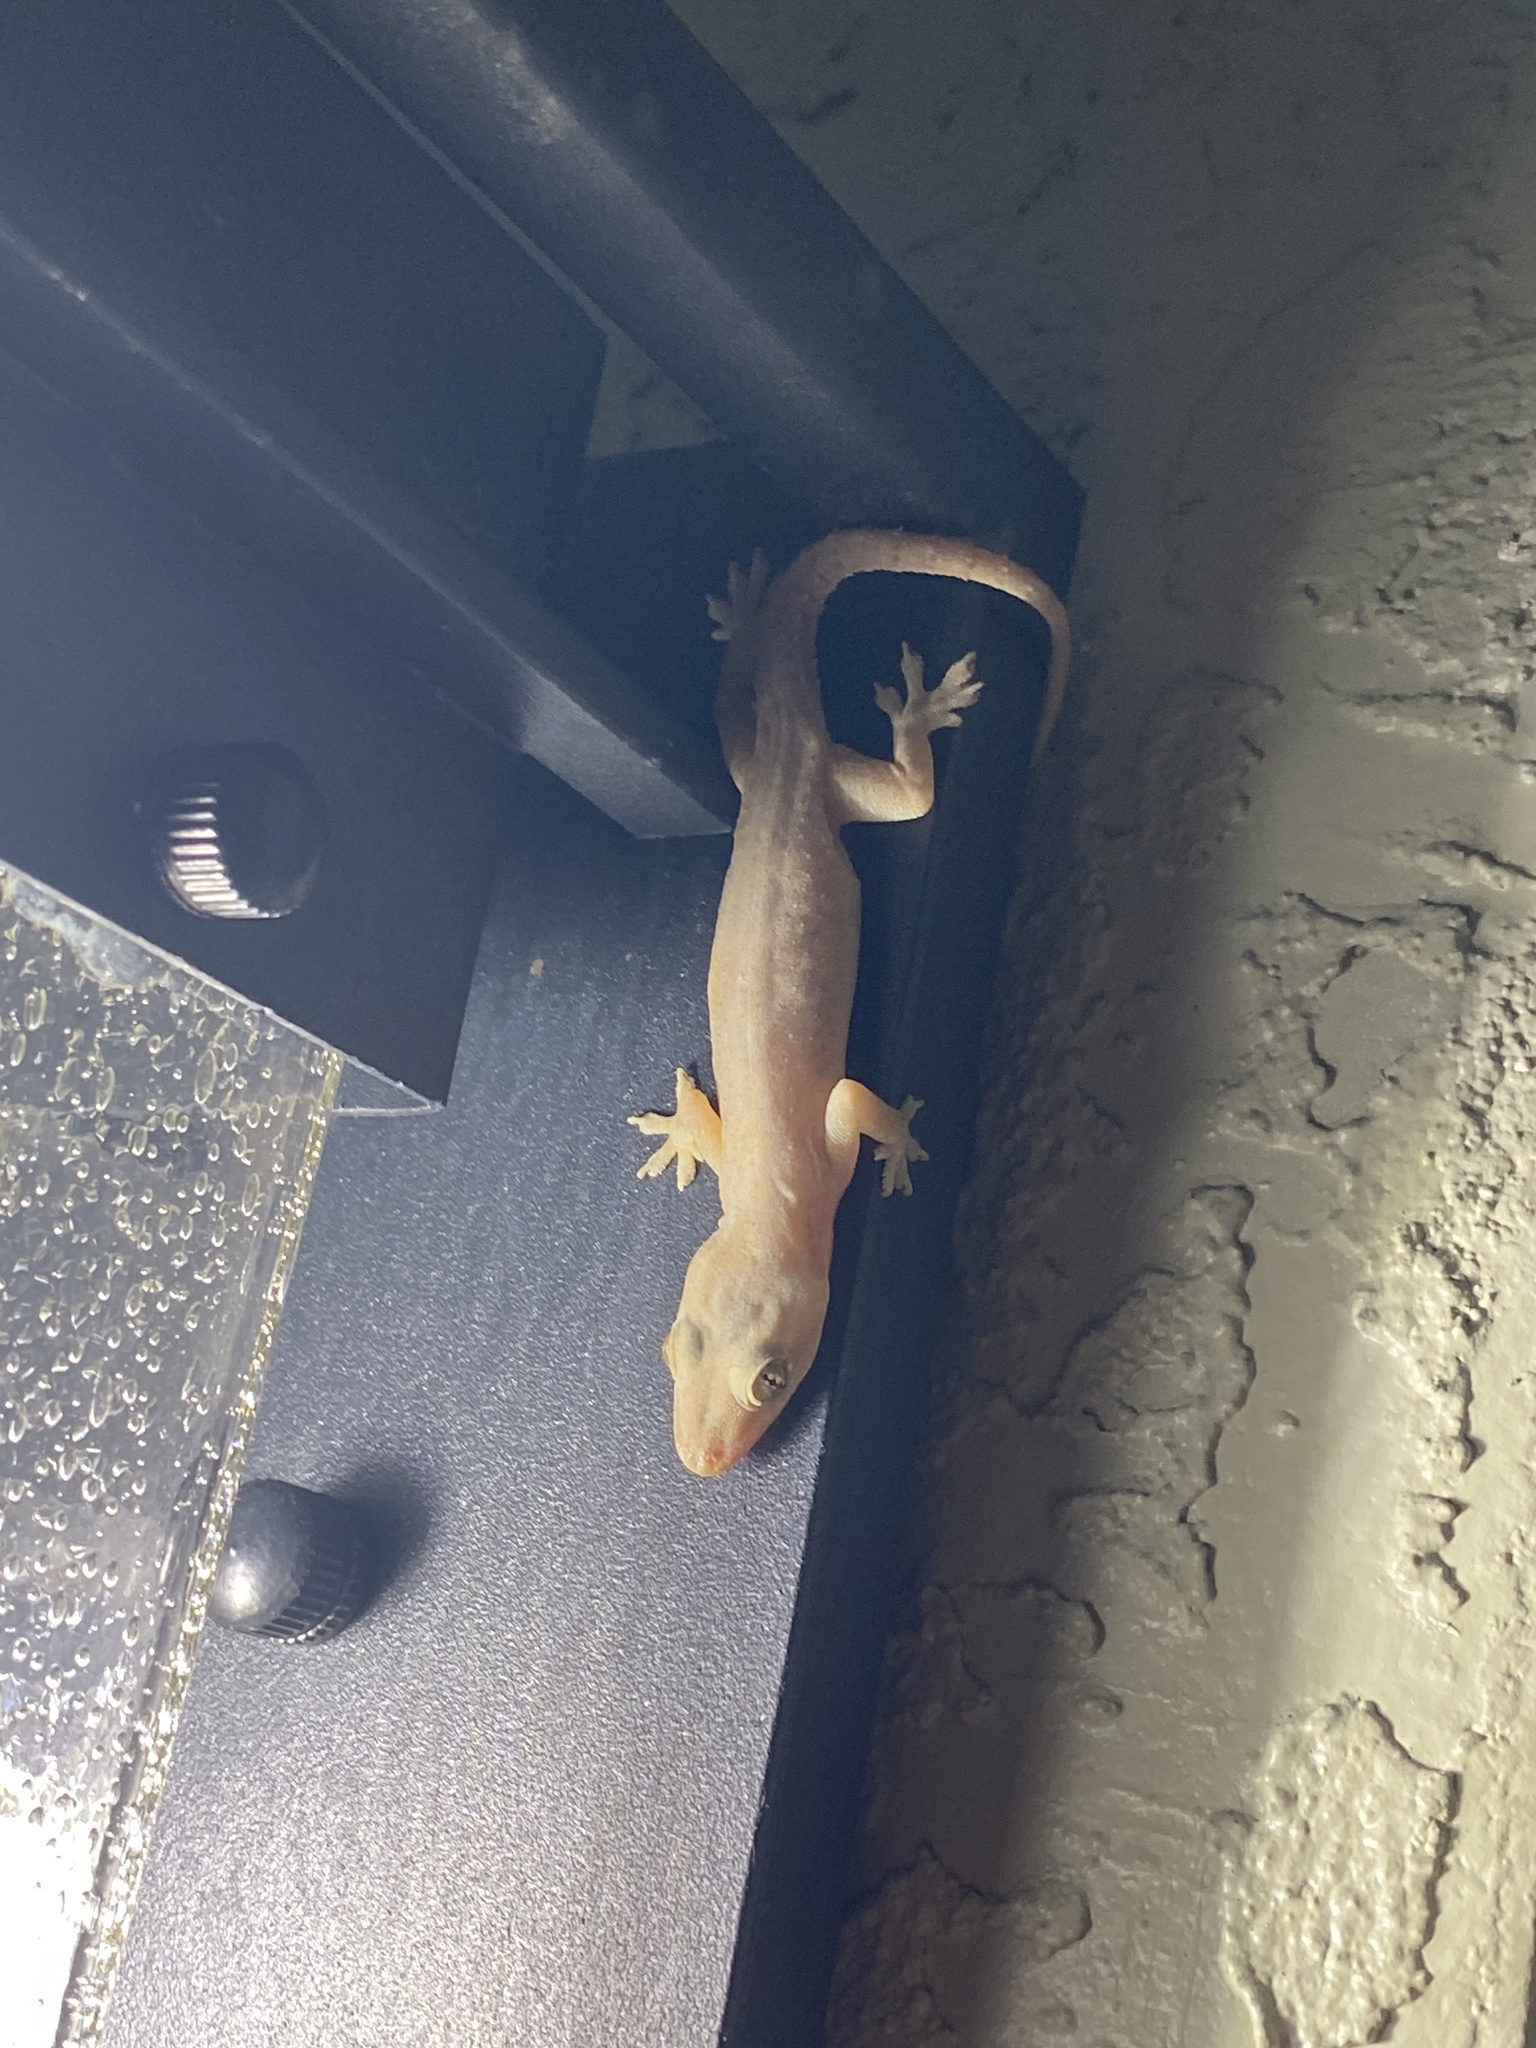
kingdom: Animalia
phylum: Chordata
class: Squamata
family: Gekkonidae
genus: Hemidactylus
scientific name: Hemidactylus mabouia
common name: House gecko
